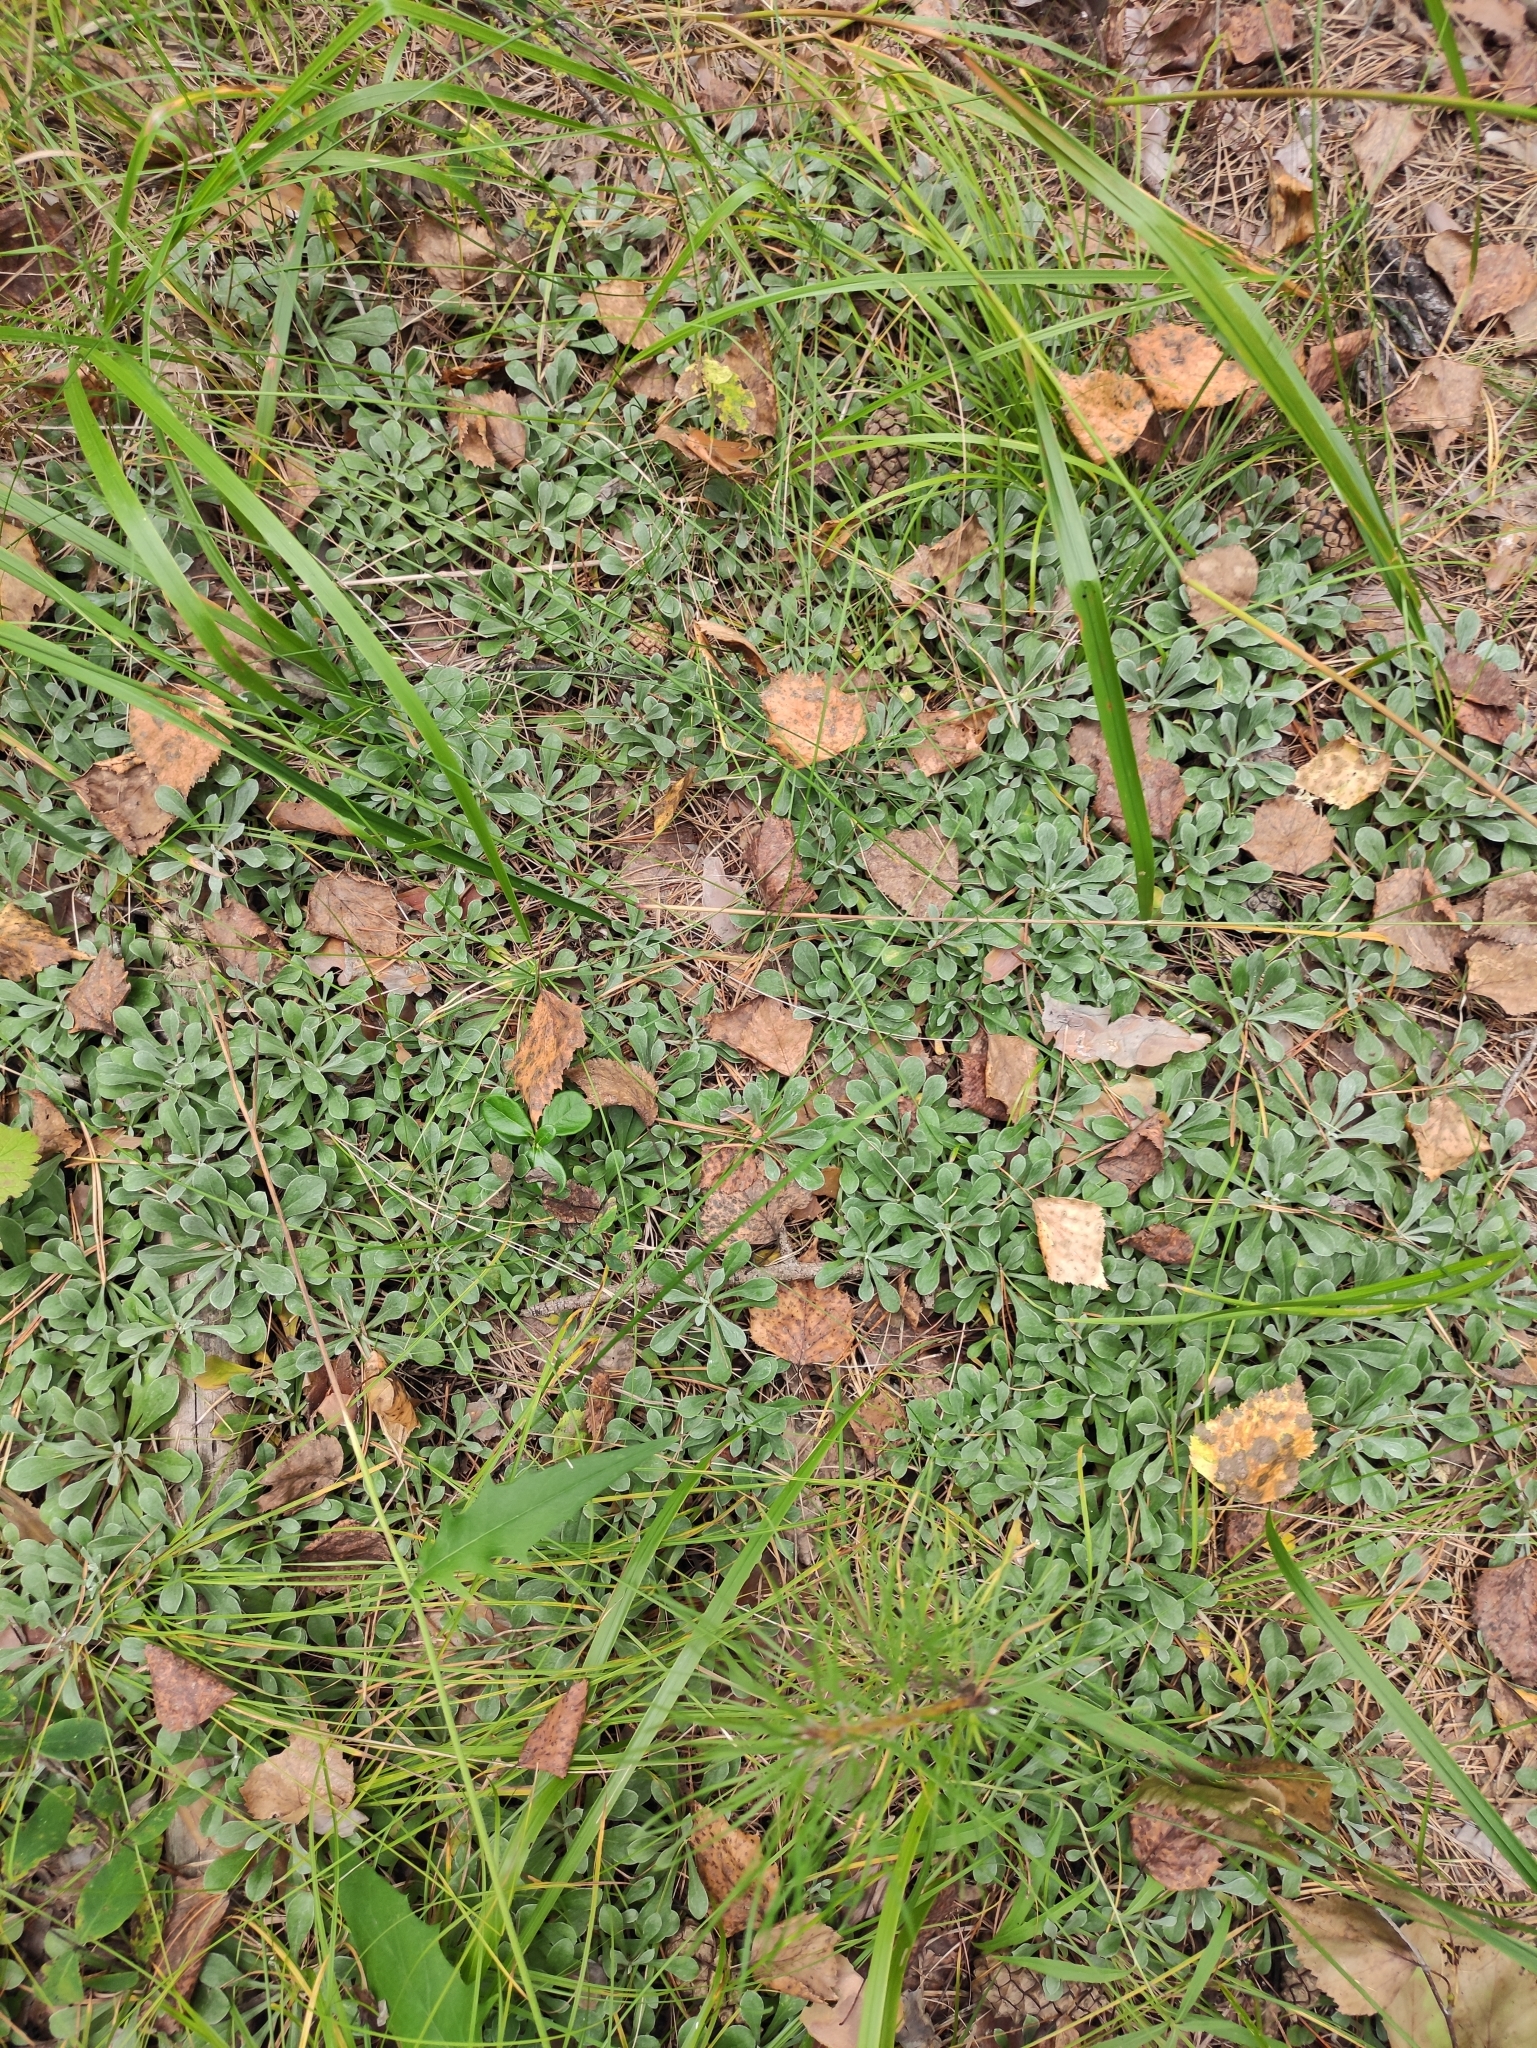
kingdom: Plantae
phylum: Tracheophyta
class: Magnoliopsida
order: Asterales
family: Asteraceae
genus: Antennaria
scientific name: Antennaria dioica
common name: Mountain everlasting
